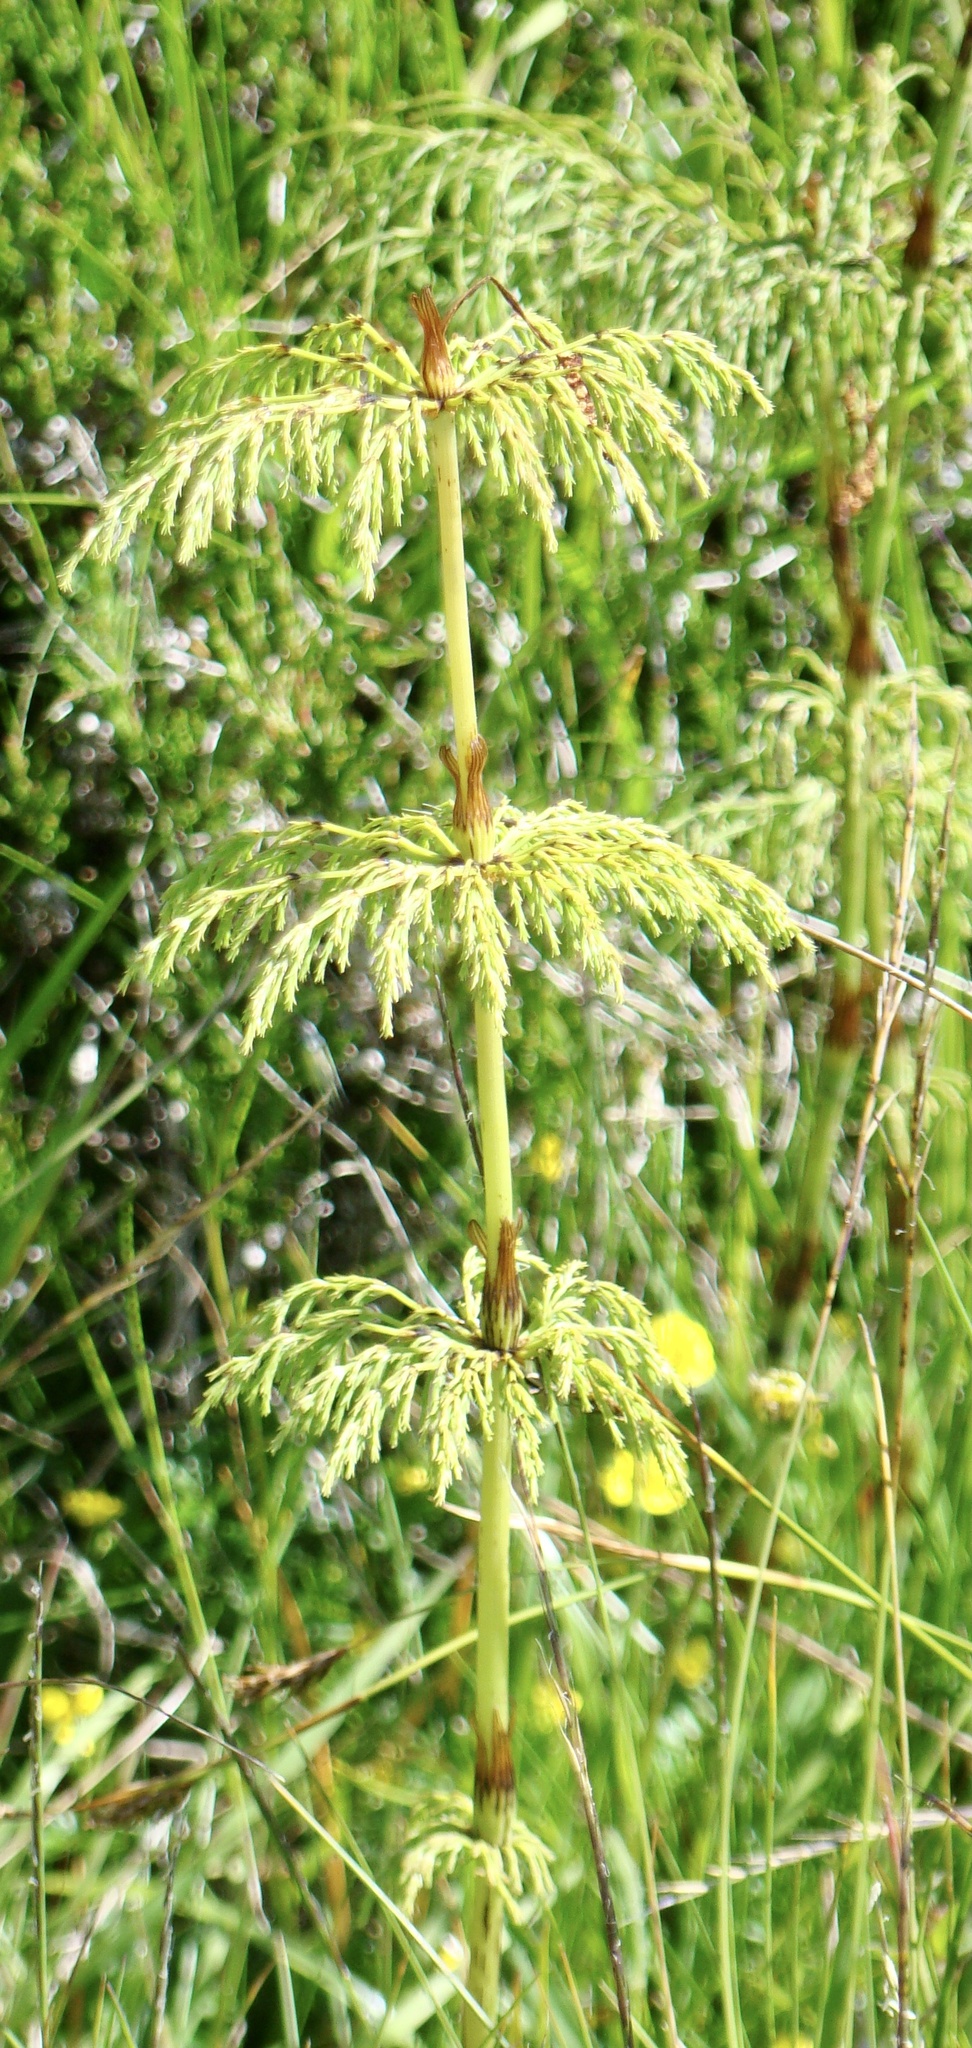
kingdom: Plantae
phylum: Tracheophyta
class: Polypodiopsida
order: Equisetales
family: Equisetaceae
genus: Equisetum
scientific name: Equisetum sylvaticum
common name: Wood horsetail
